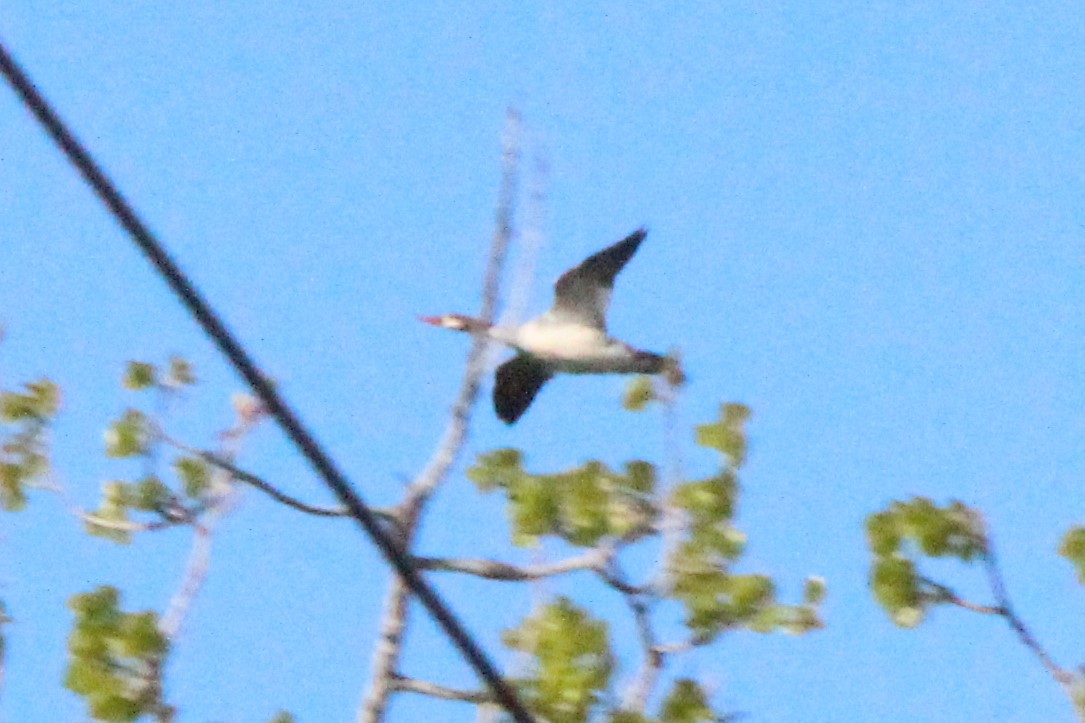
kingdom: Animalia
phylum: Chordata
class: Aves
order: Anseriformes
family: Anatidae
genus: Mergus
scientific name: Mergus merganser
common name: Common merganser
